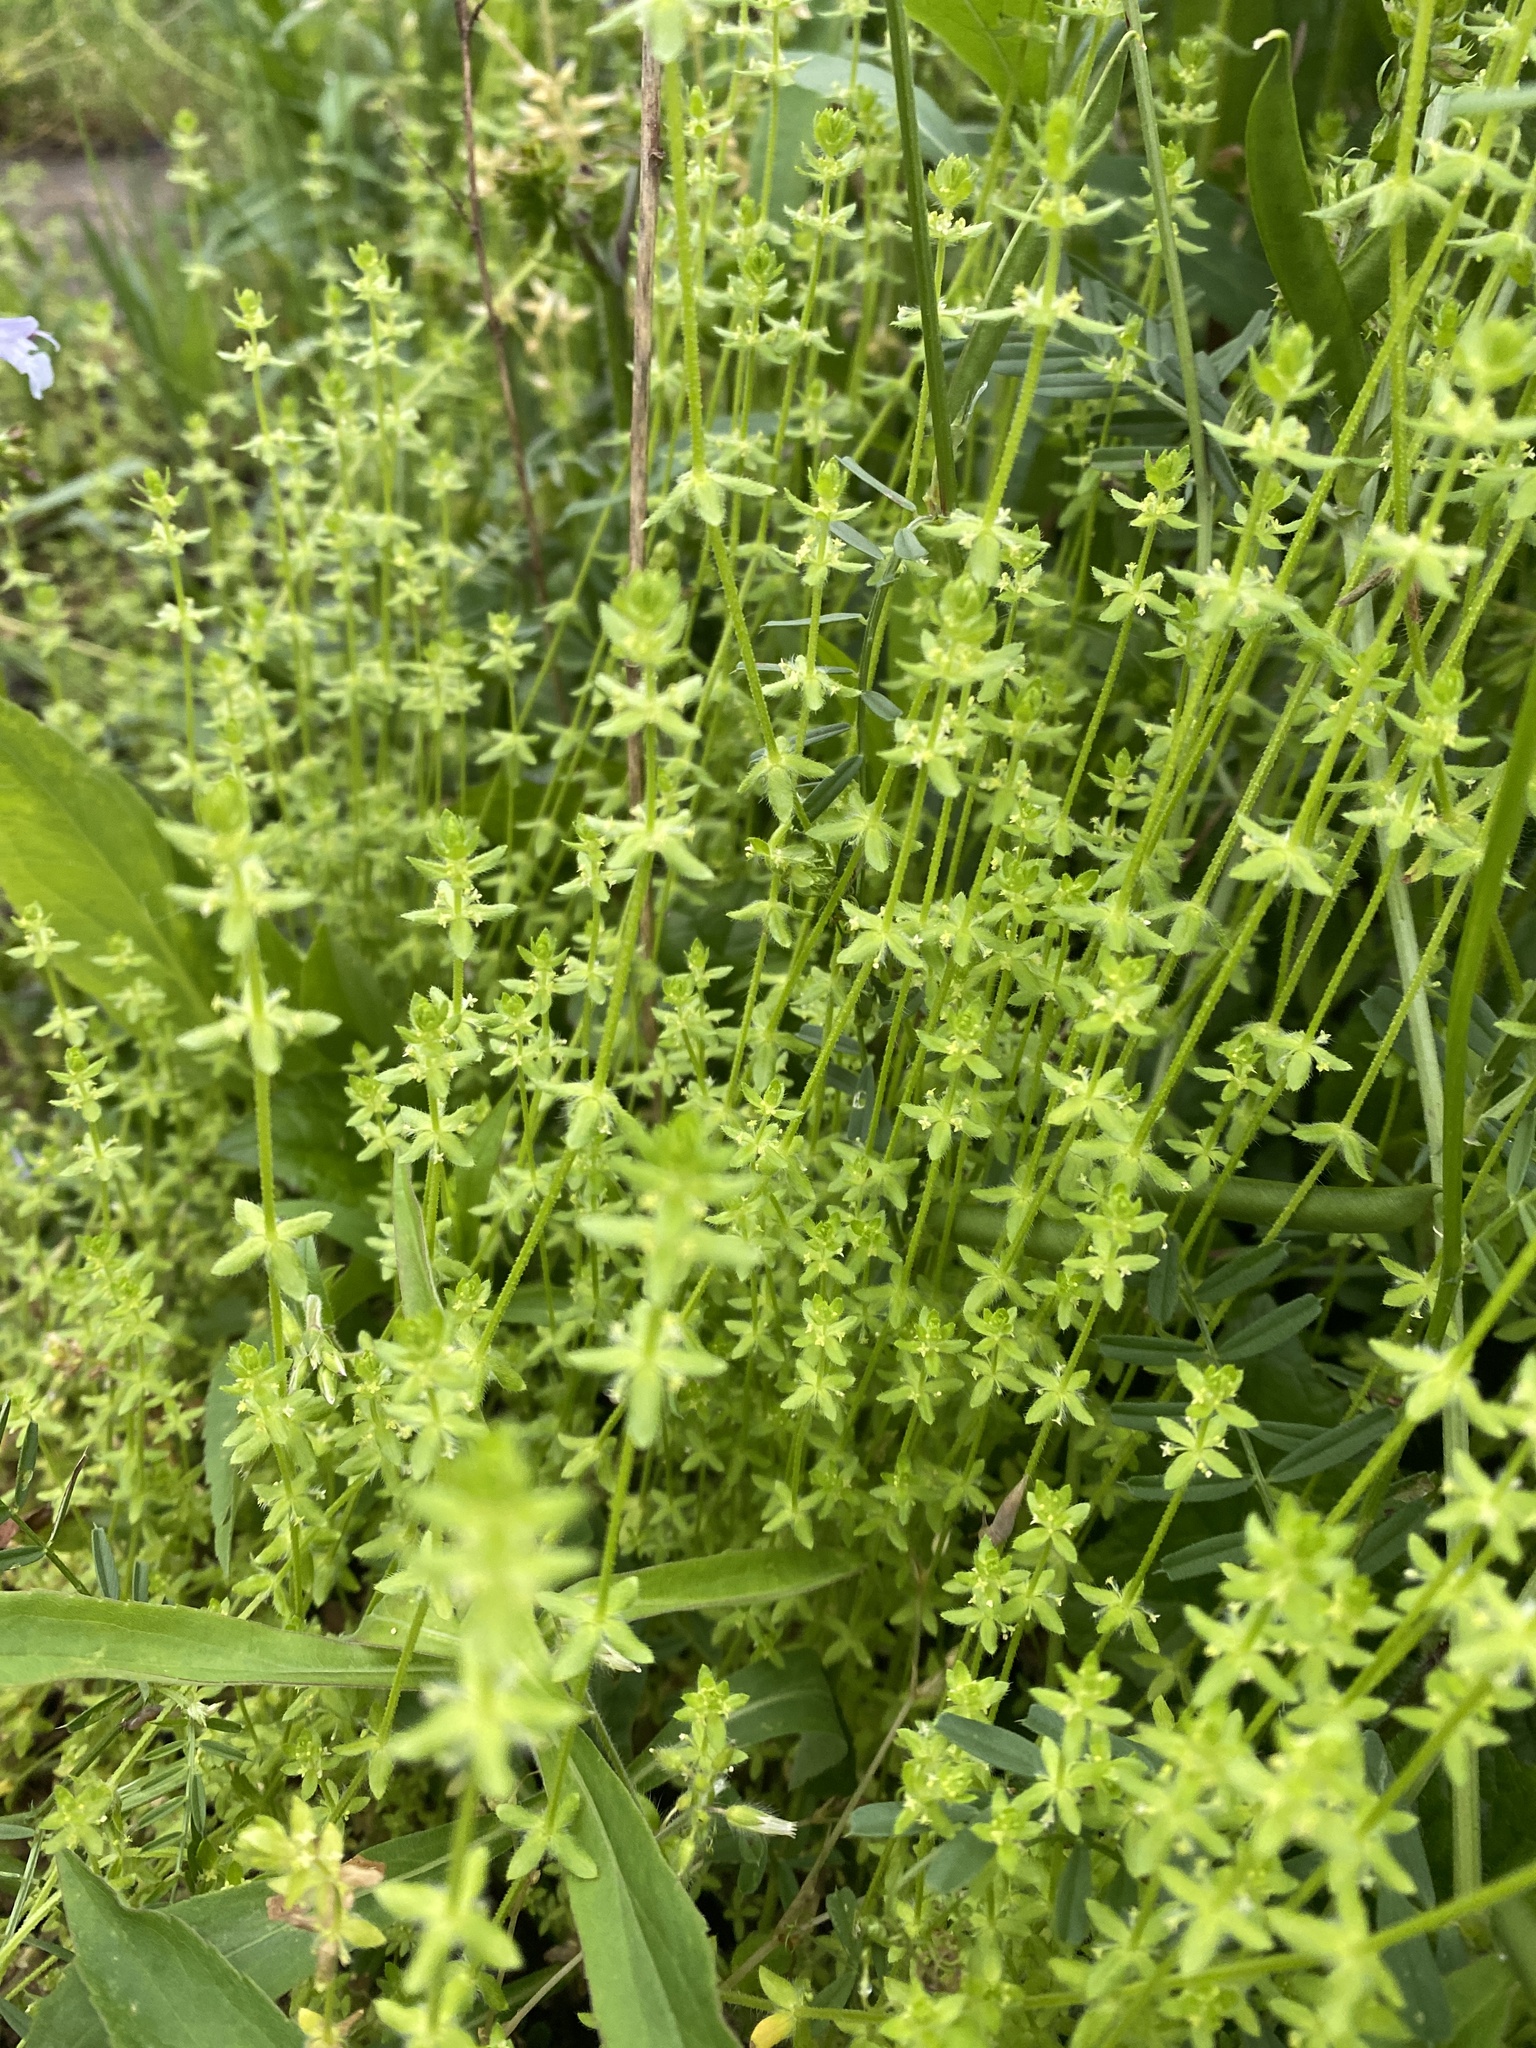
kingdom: Plantae
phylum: Tracheophyta
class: Magnoliopsida
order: Gentianales
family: Rubiaceae
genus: Cruciata
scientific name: Cruciata pedemontana
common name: Piedmont bedstraw
